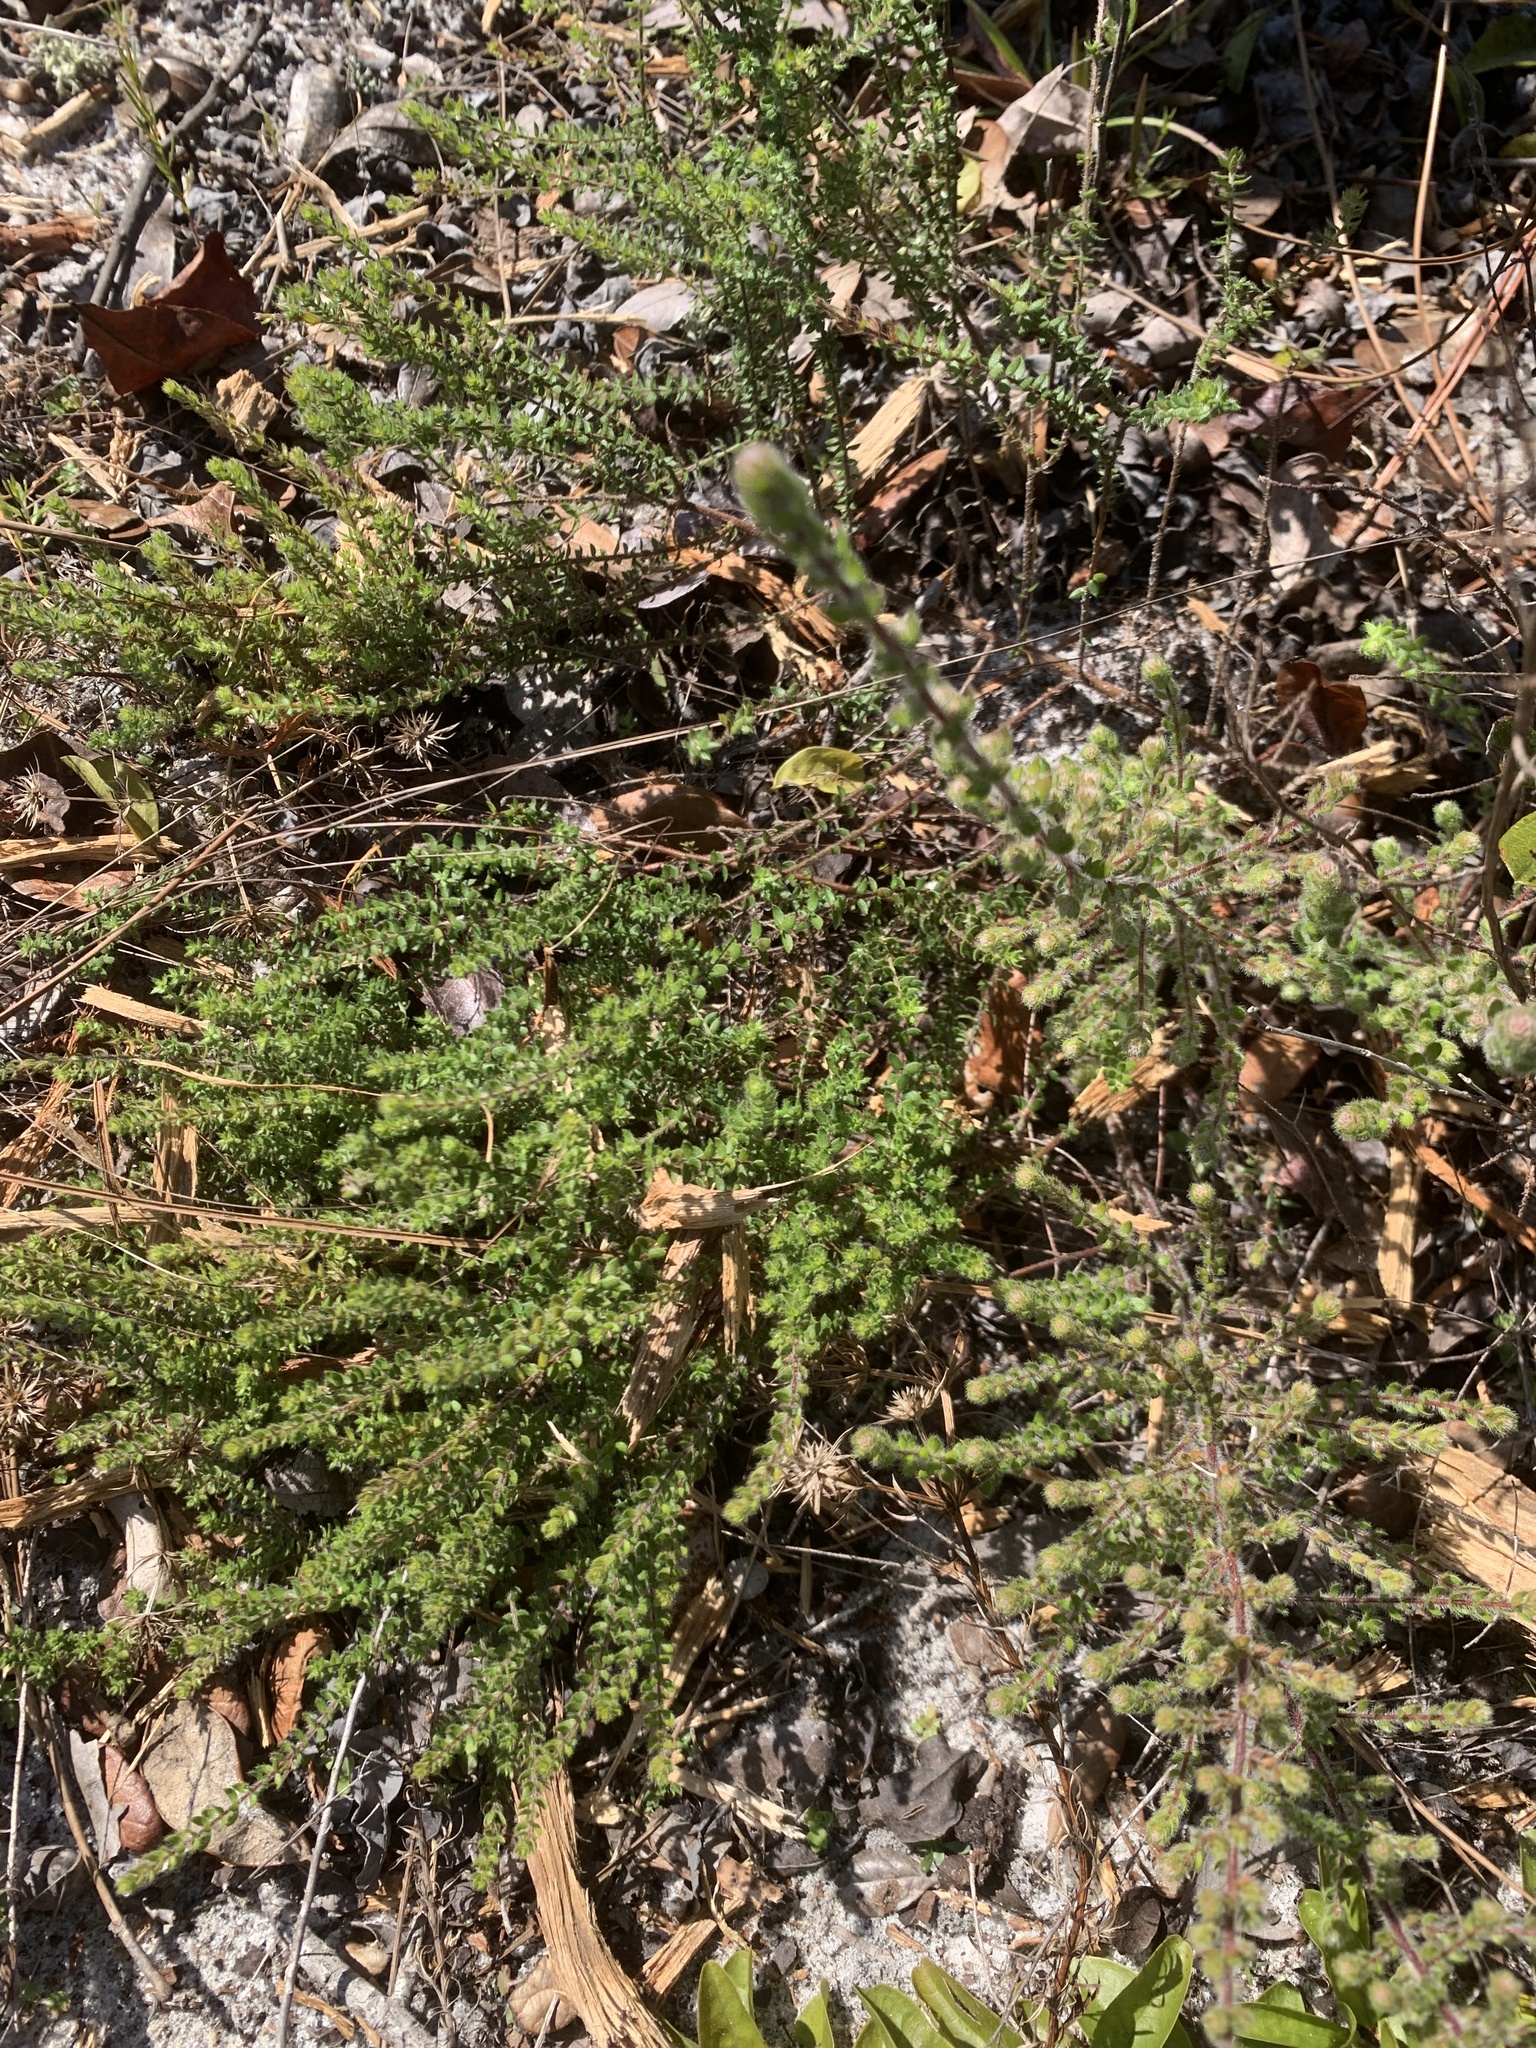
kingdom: Plantae
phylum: Tracheophyta
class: Magnoliopsida
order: Malvales
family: Cistaceae
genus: Lechea
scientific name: Lechea divaricata
